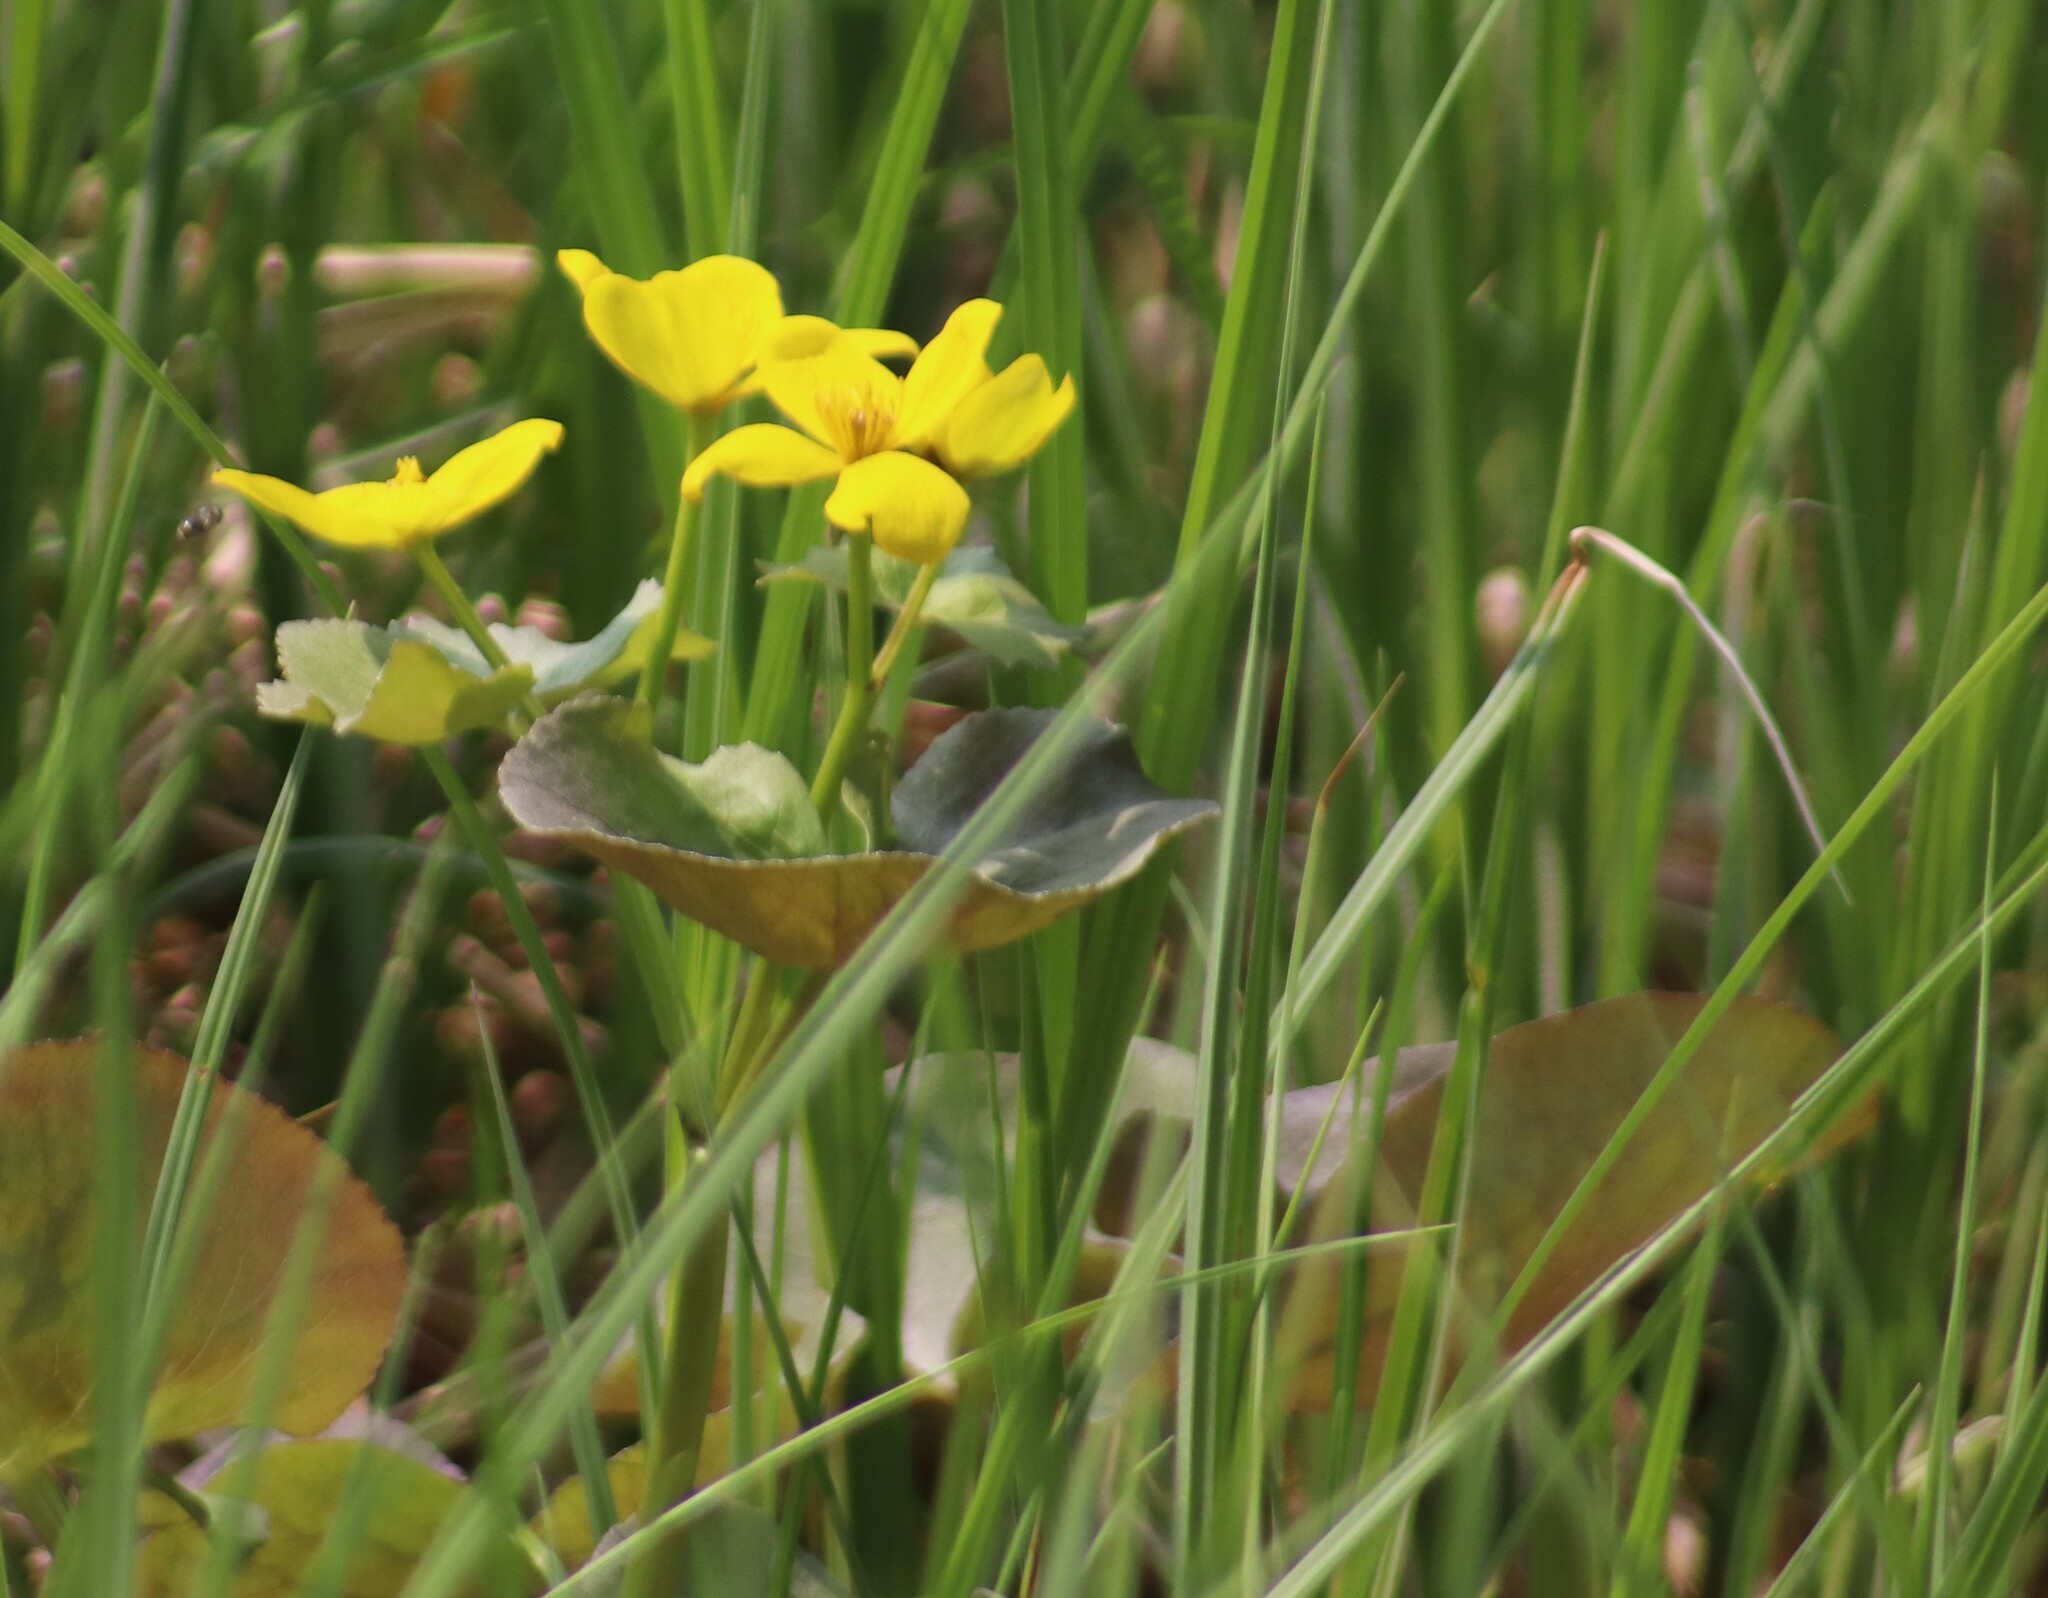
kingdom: Plantae
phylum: Tracheophyta
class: Magnoliopsida
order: Ranunculales
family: Ranunculaceae
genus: Caltha
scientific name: Caltha palustris
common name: Marsh marigold
